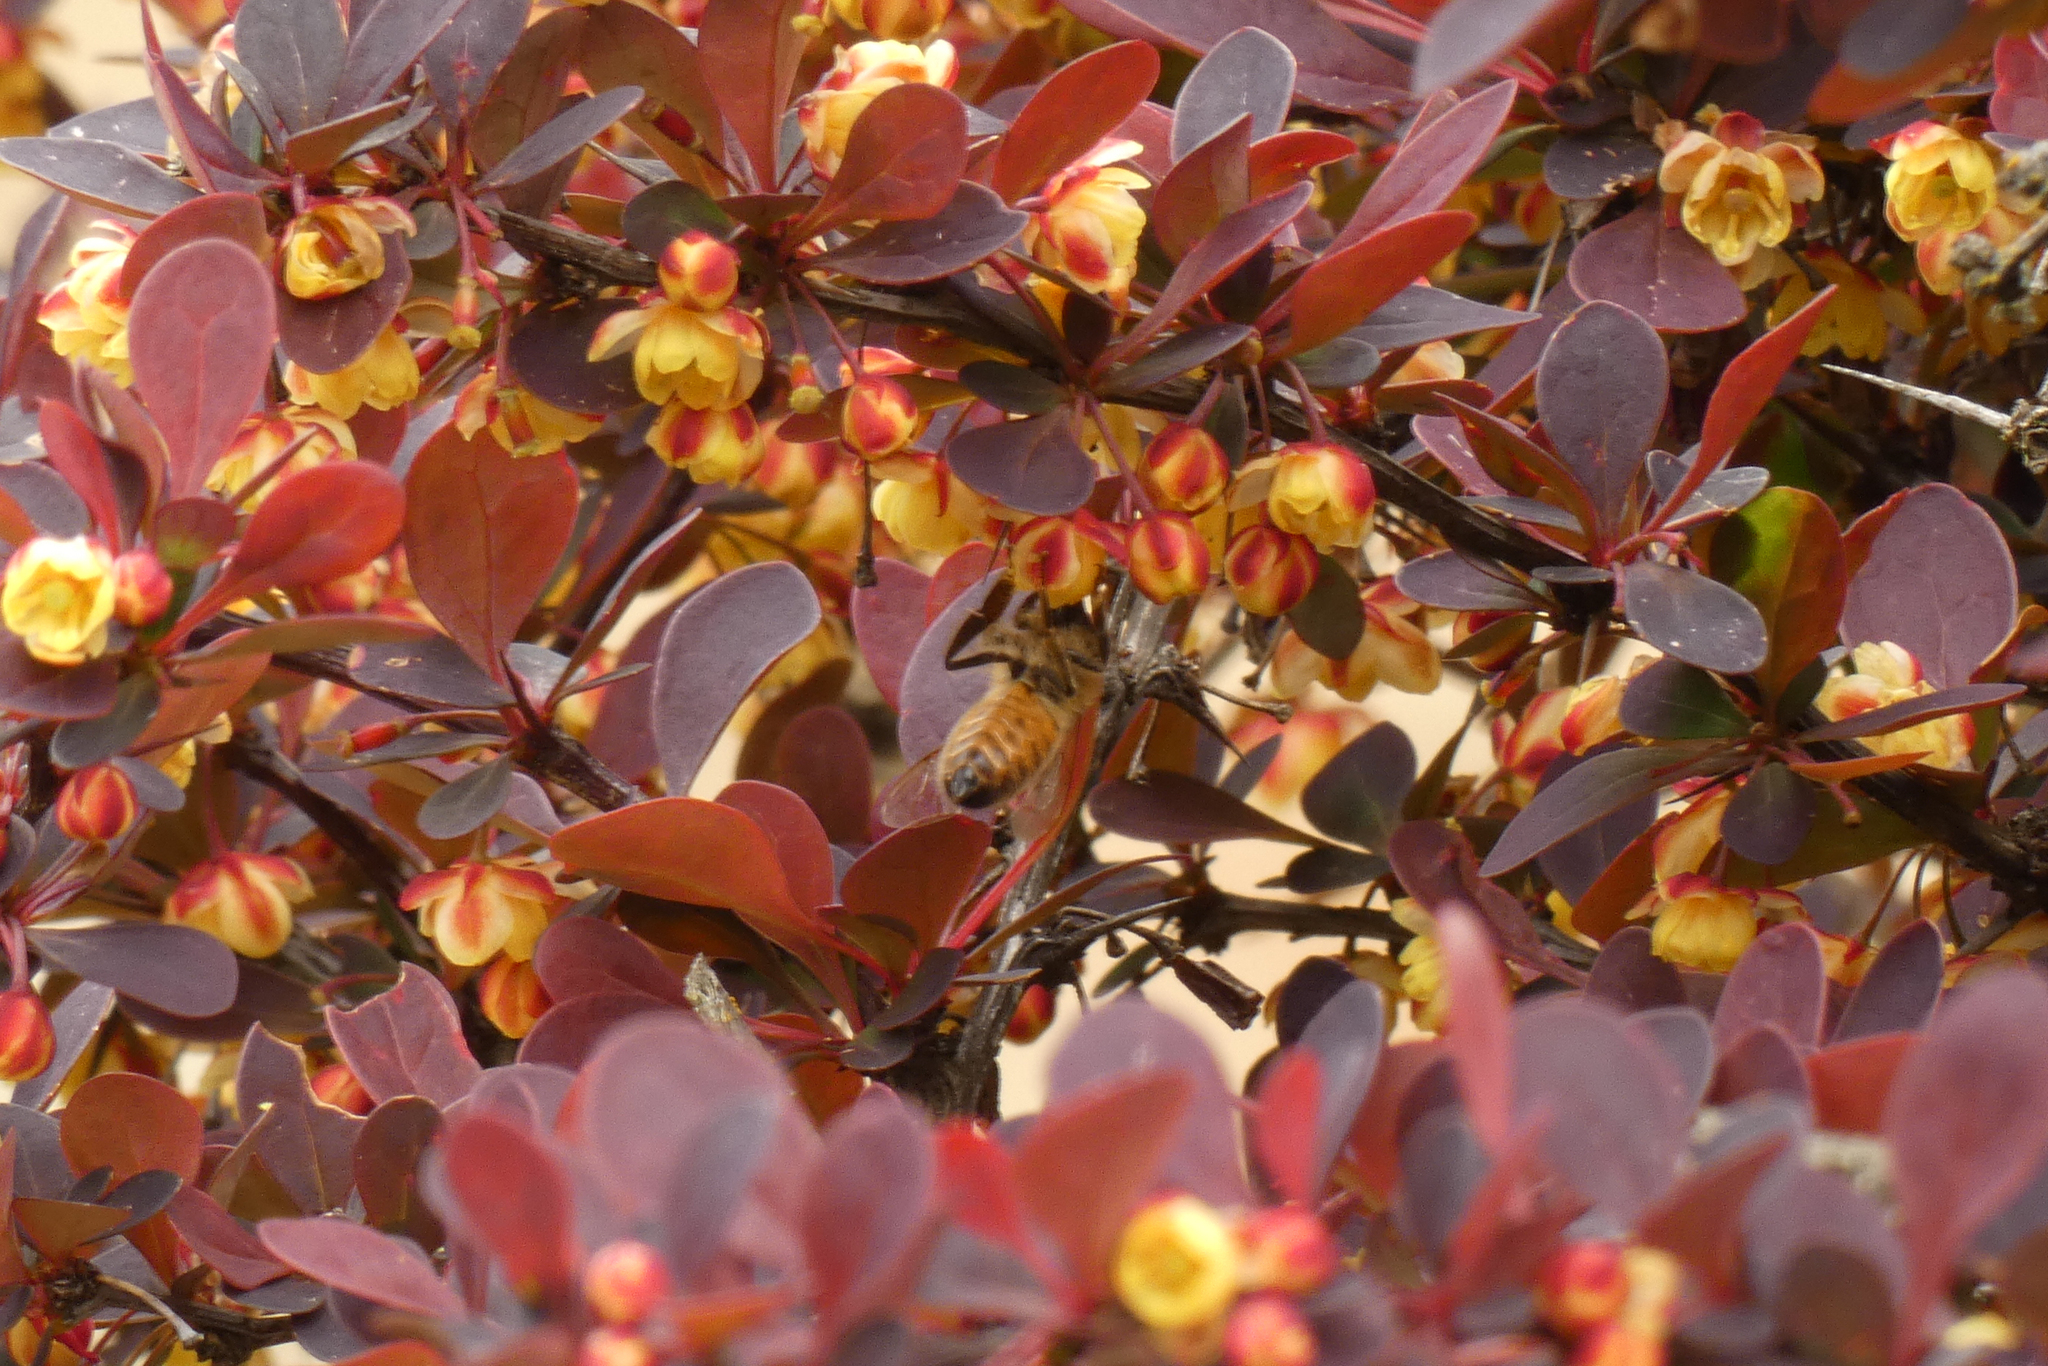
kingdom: Animalia
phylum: Arthropoda
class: Insecta
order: Hymenoptera
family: Apidae
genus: Apis
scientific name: Apis mellifera
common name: Honey bee
